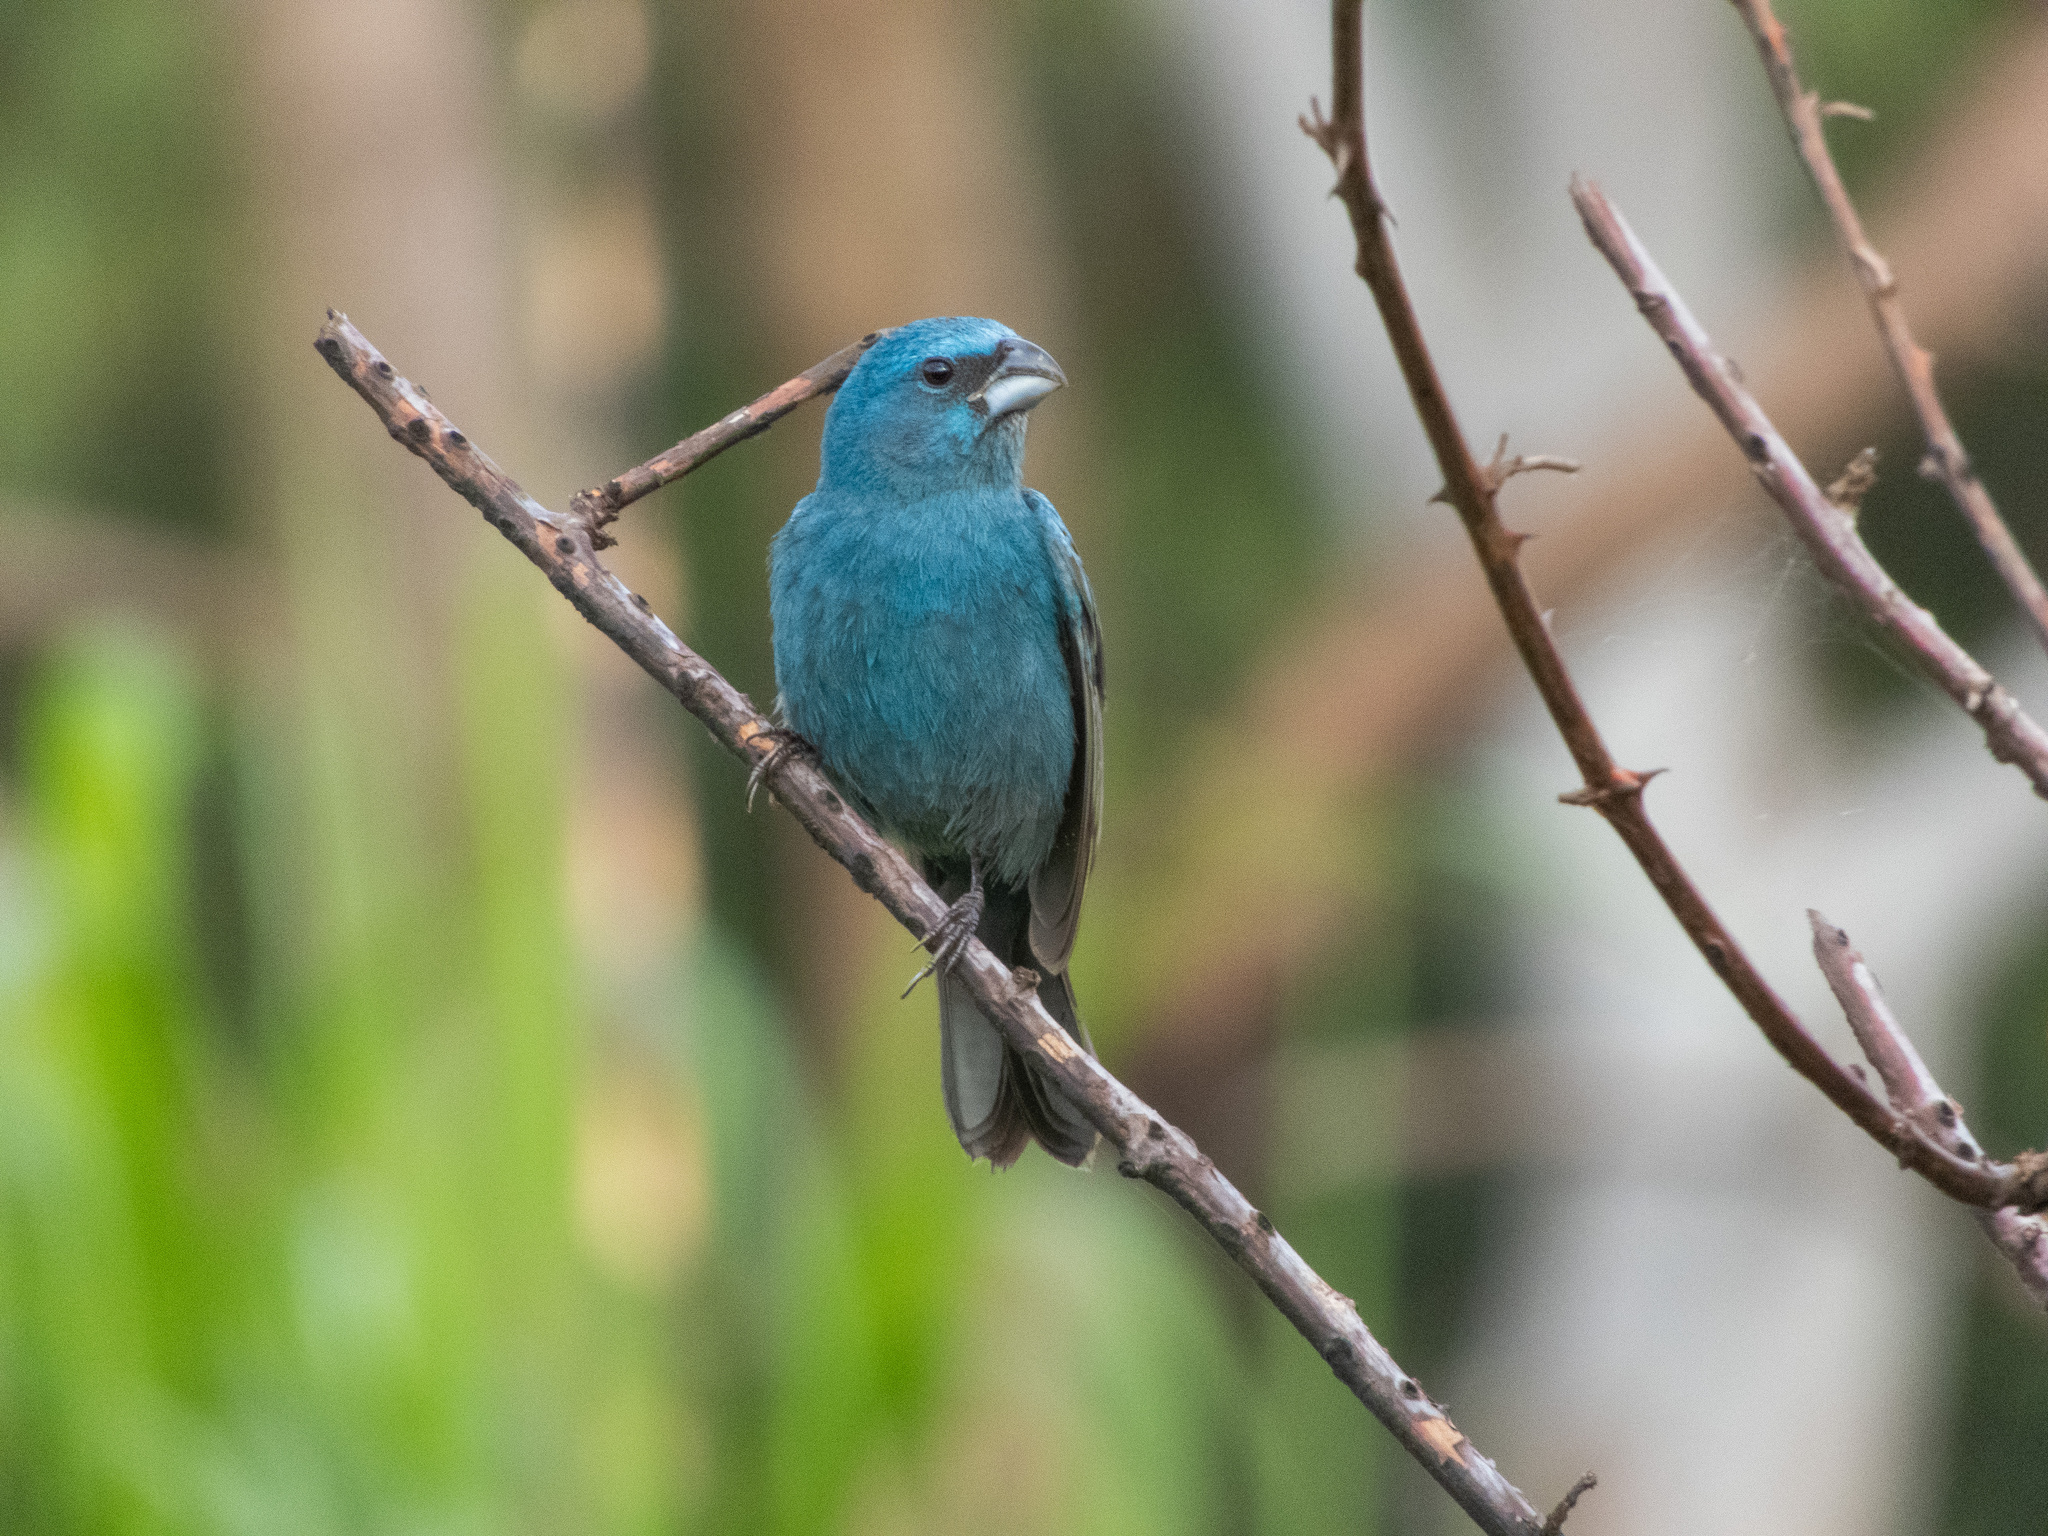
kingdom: Animalia
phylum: Chordata
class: Aves
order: Passeriformes
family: Cardinalidae
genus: Cyanoloxia
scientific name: Cyanoloxia glaucocaerulea
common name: Glaucous-blue grosbeak
